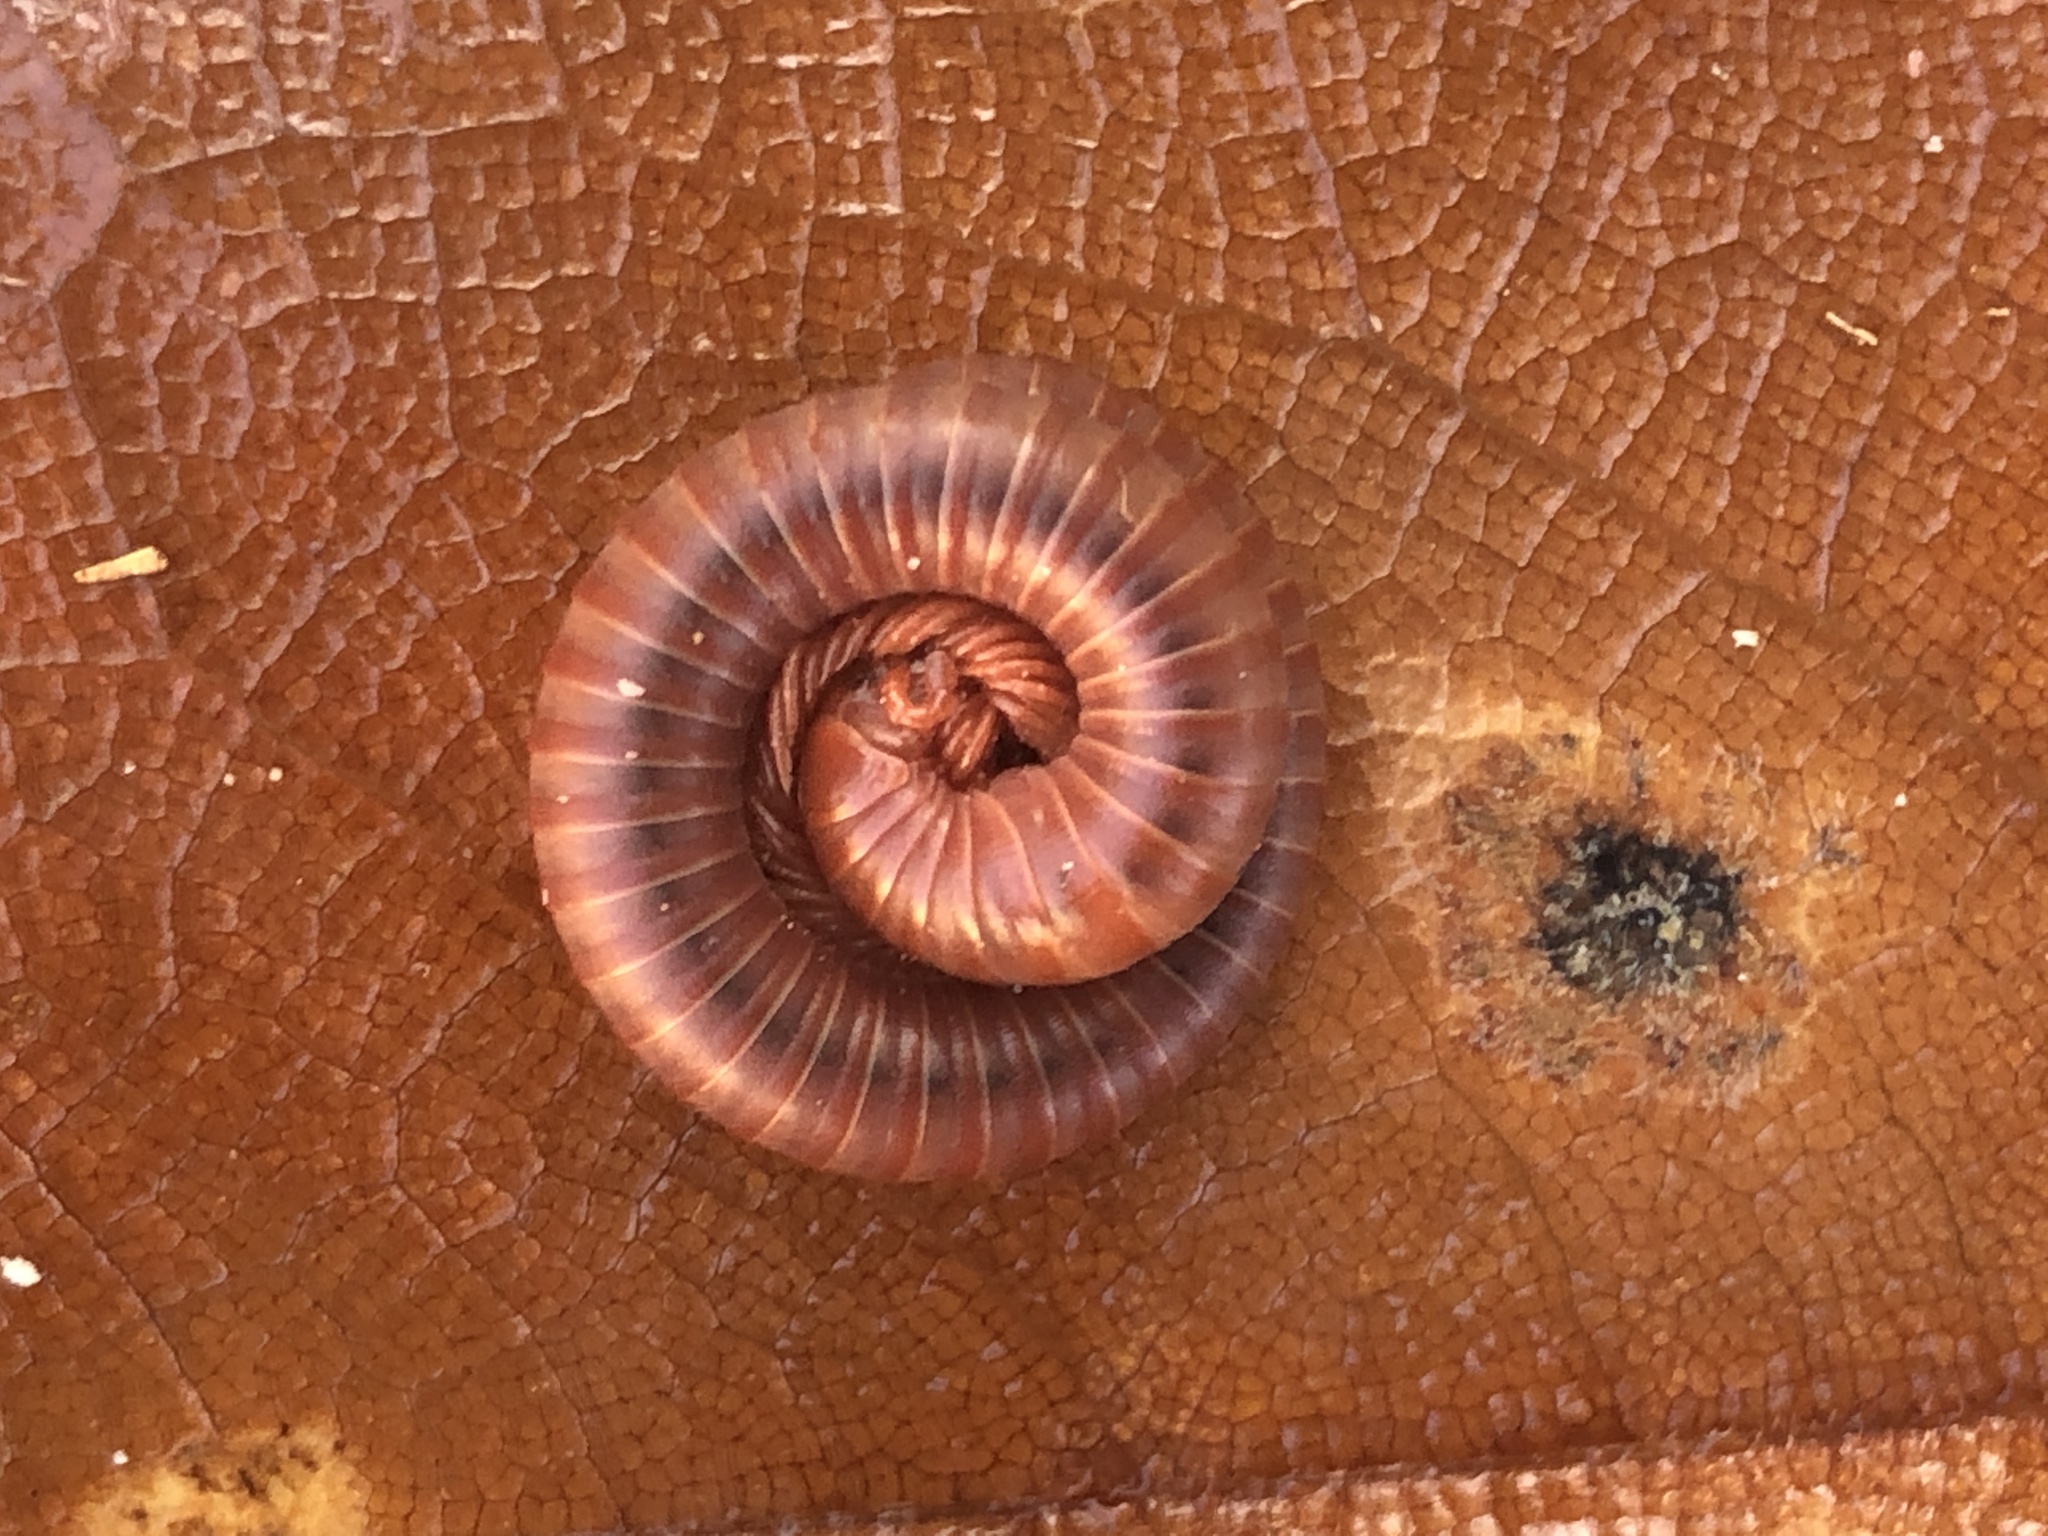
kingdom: Animalia
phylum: Arthropoda
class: Diplopoda
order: Spirobolida
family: Pachybolidae
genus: Trigoniulus
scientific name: Trigoniulus corallinus
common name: Millipede
